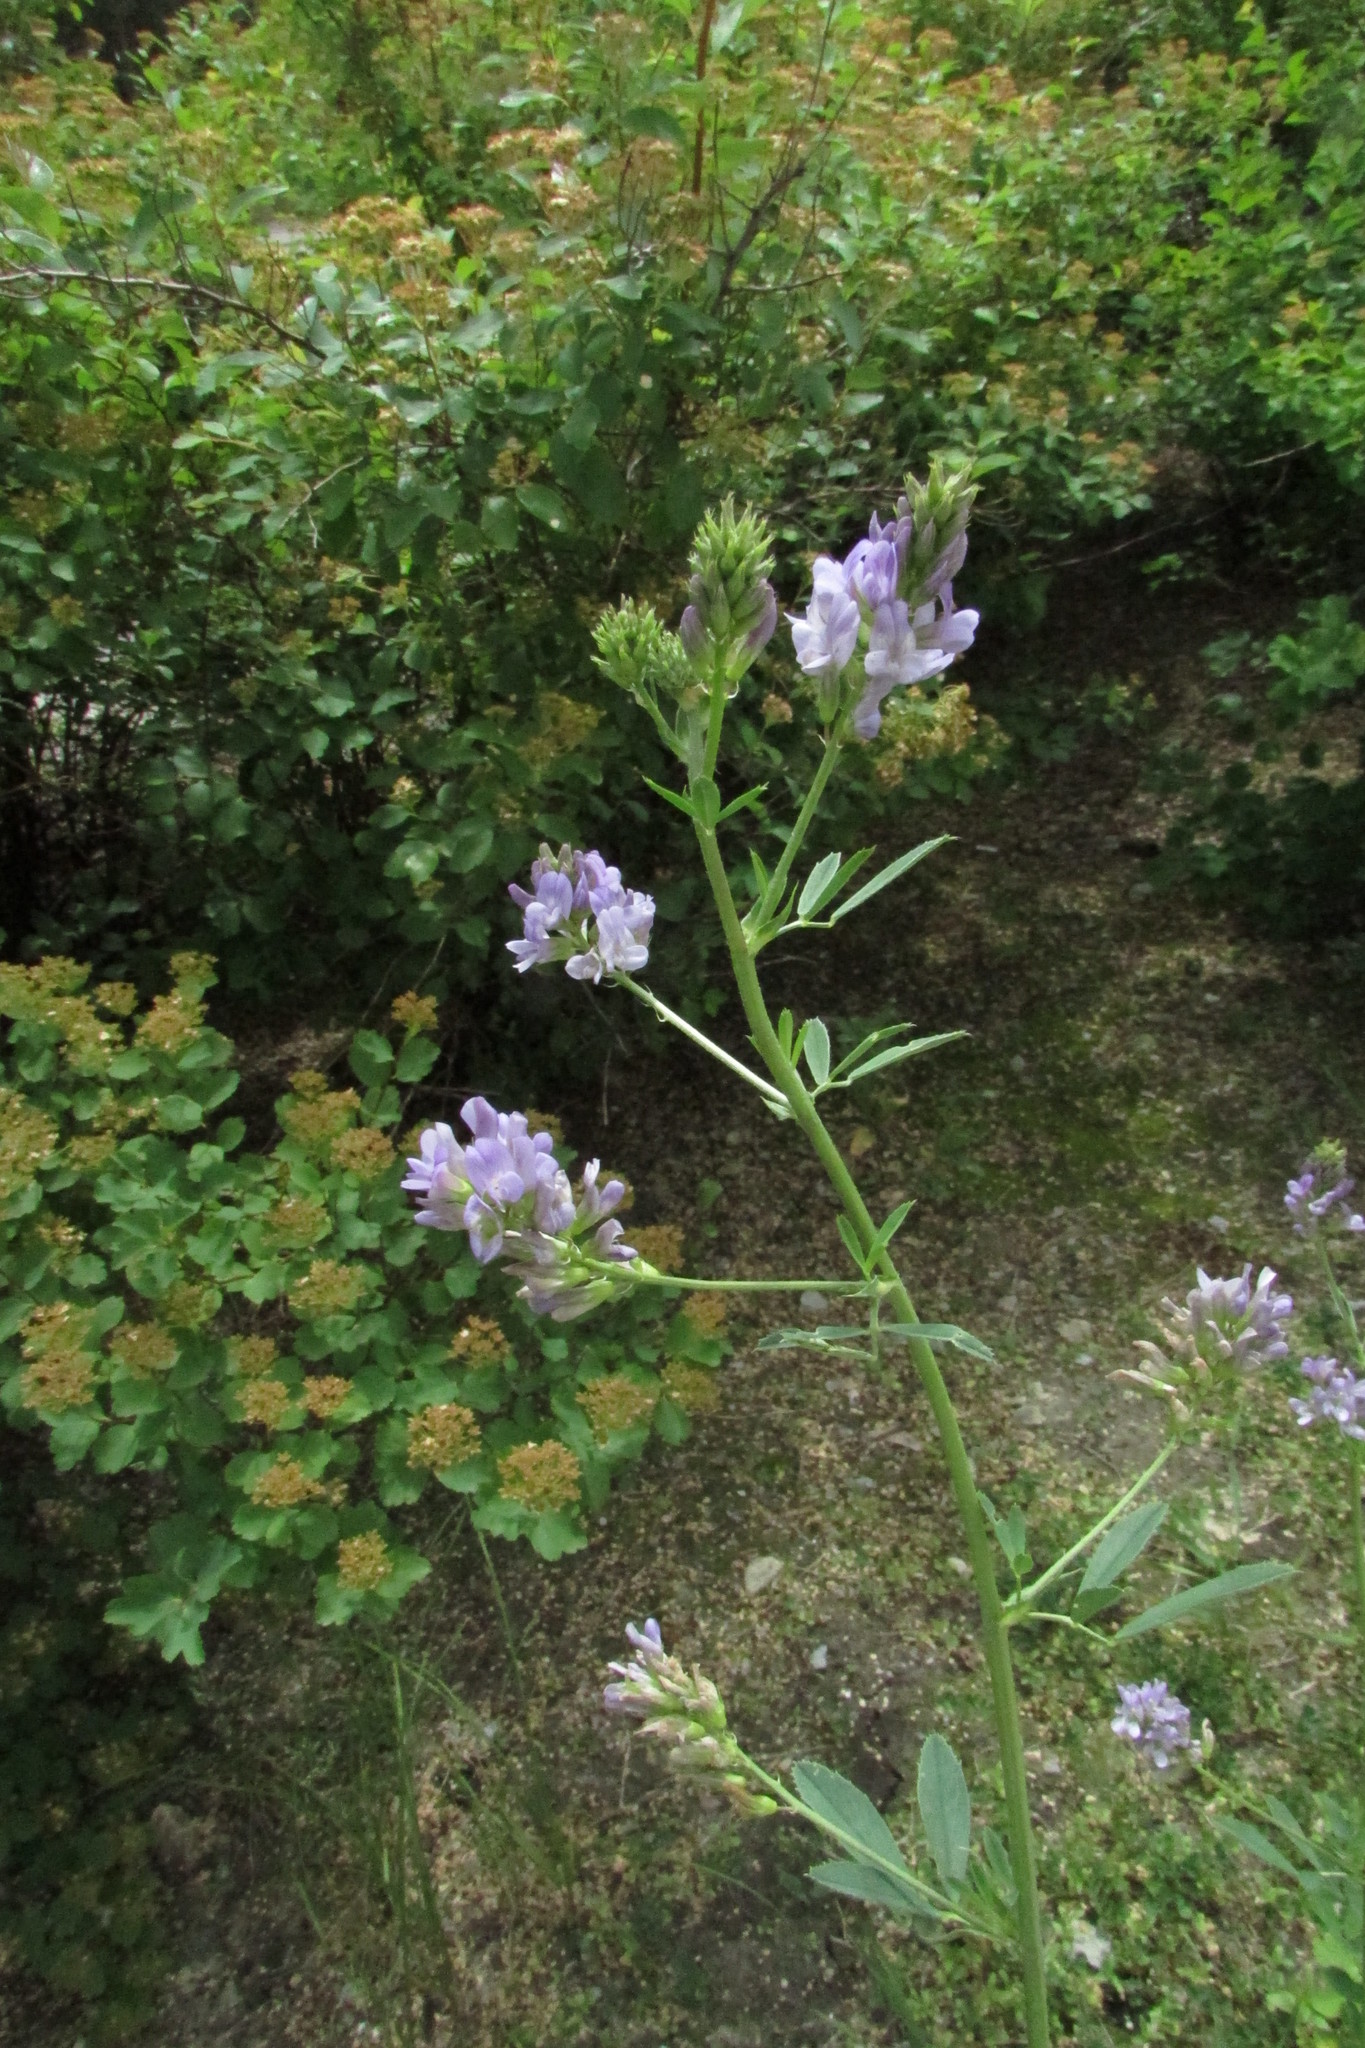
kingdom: Plantae
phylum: Tracheophyta
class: Magnoliopsida
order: Fabales
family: Fabaceae
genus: Medicago
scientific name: Medicago sativa
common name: Alfalfa
